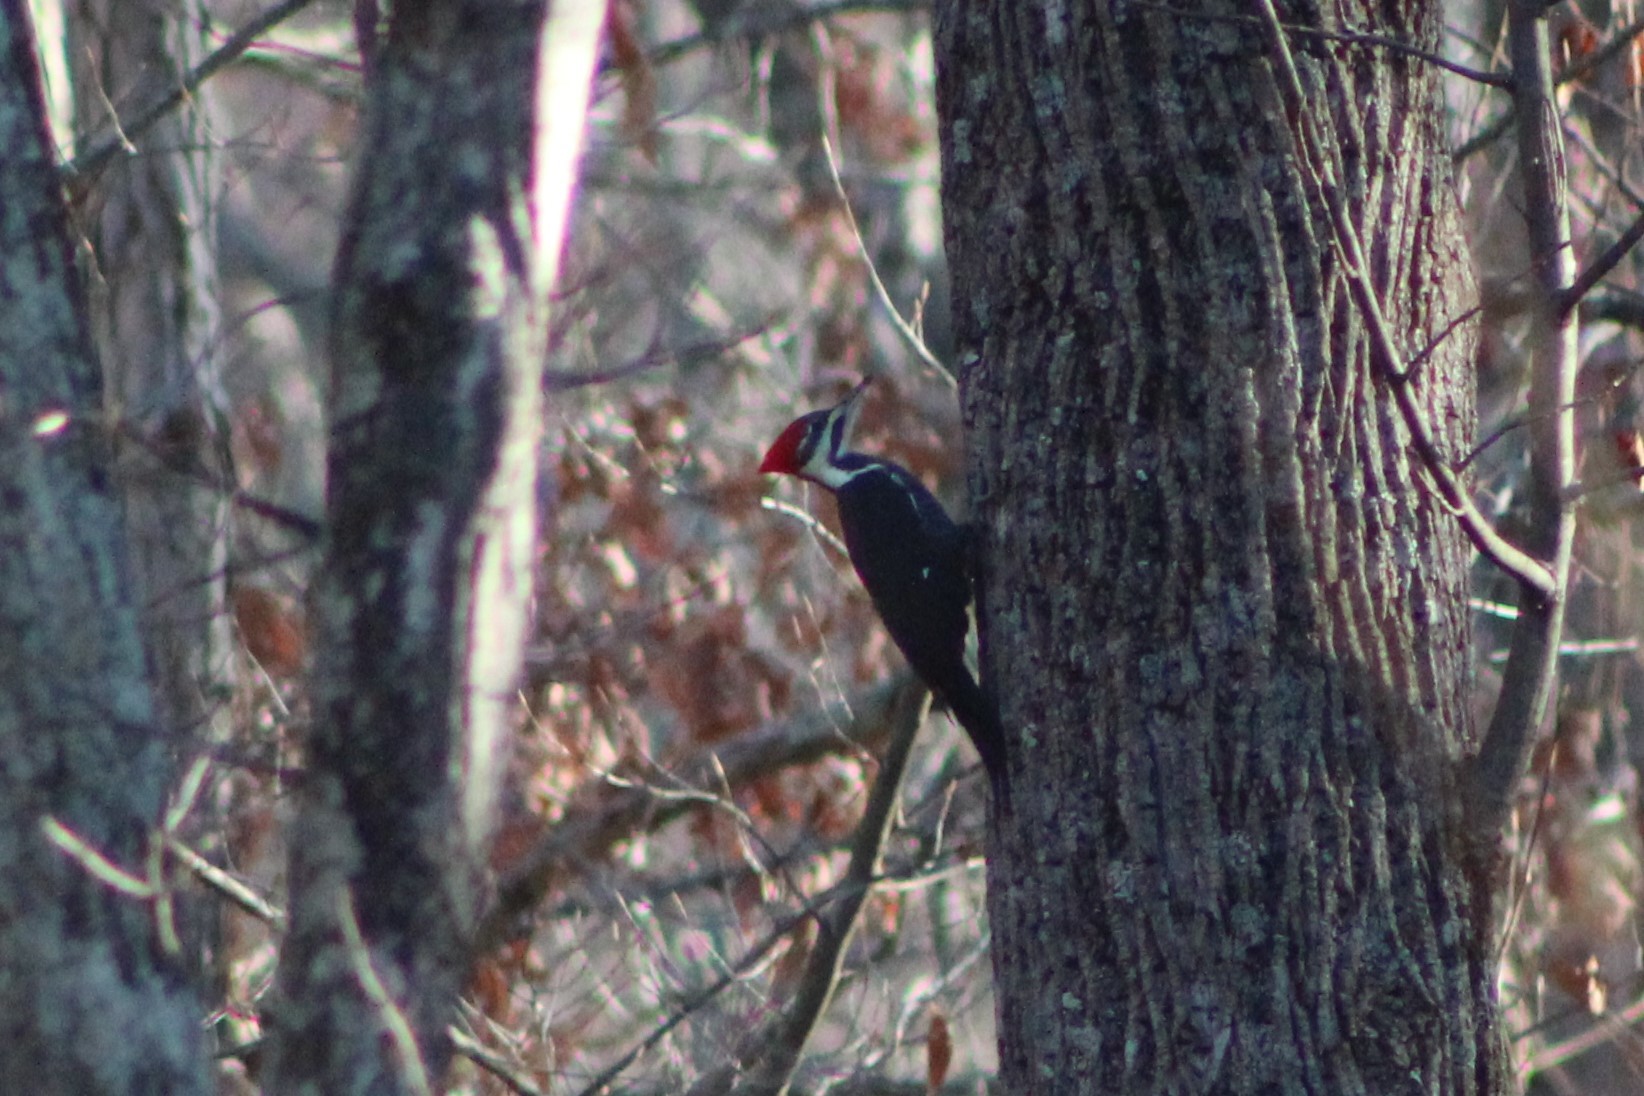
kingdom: Animalia
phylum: Chordata
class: Aves
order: Piciformes
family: Picidae
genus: Dryocopus
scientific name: Dryocopus pileatus
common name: Pileated woodpecker
